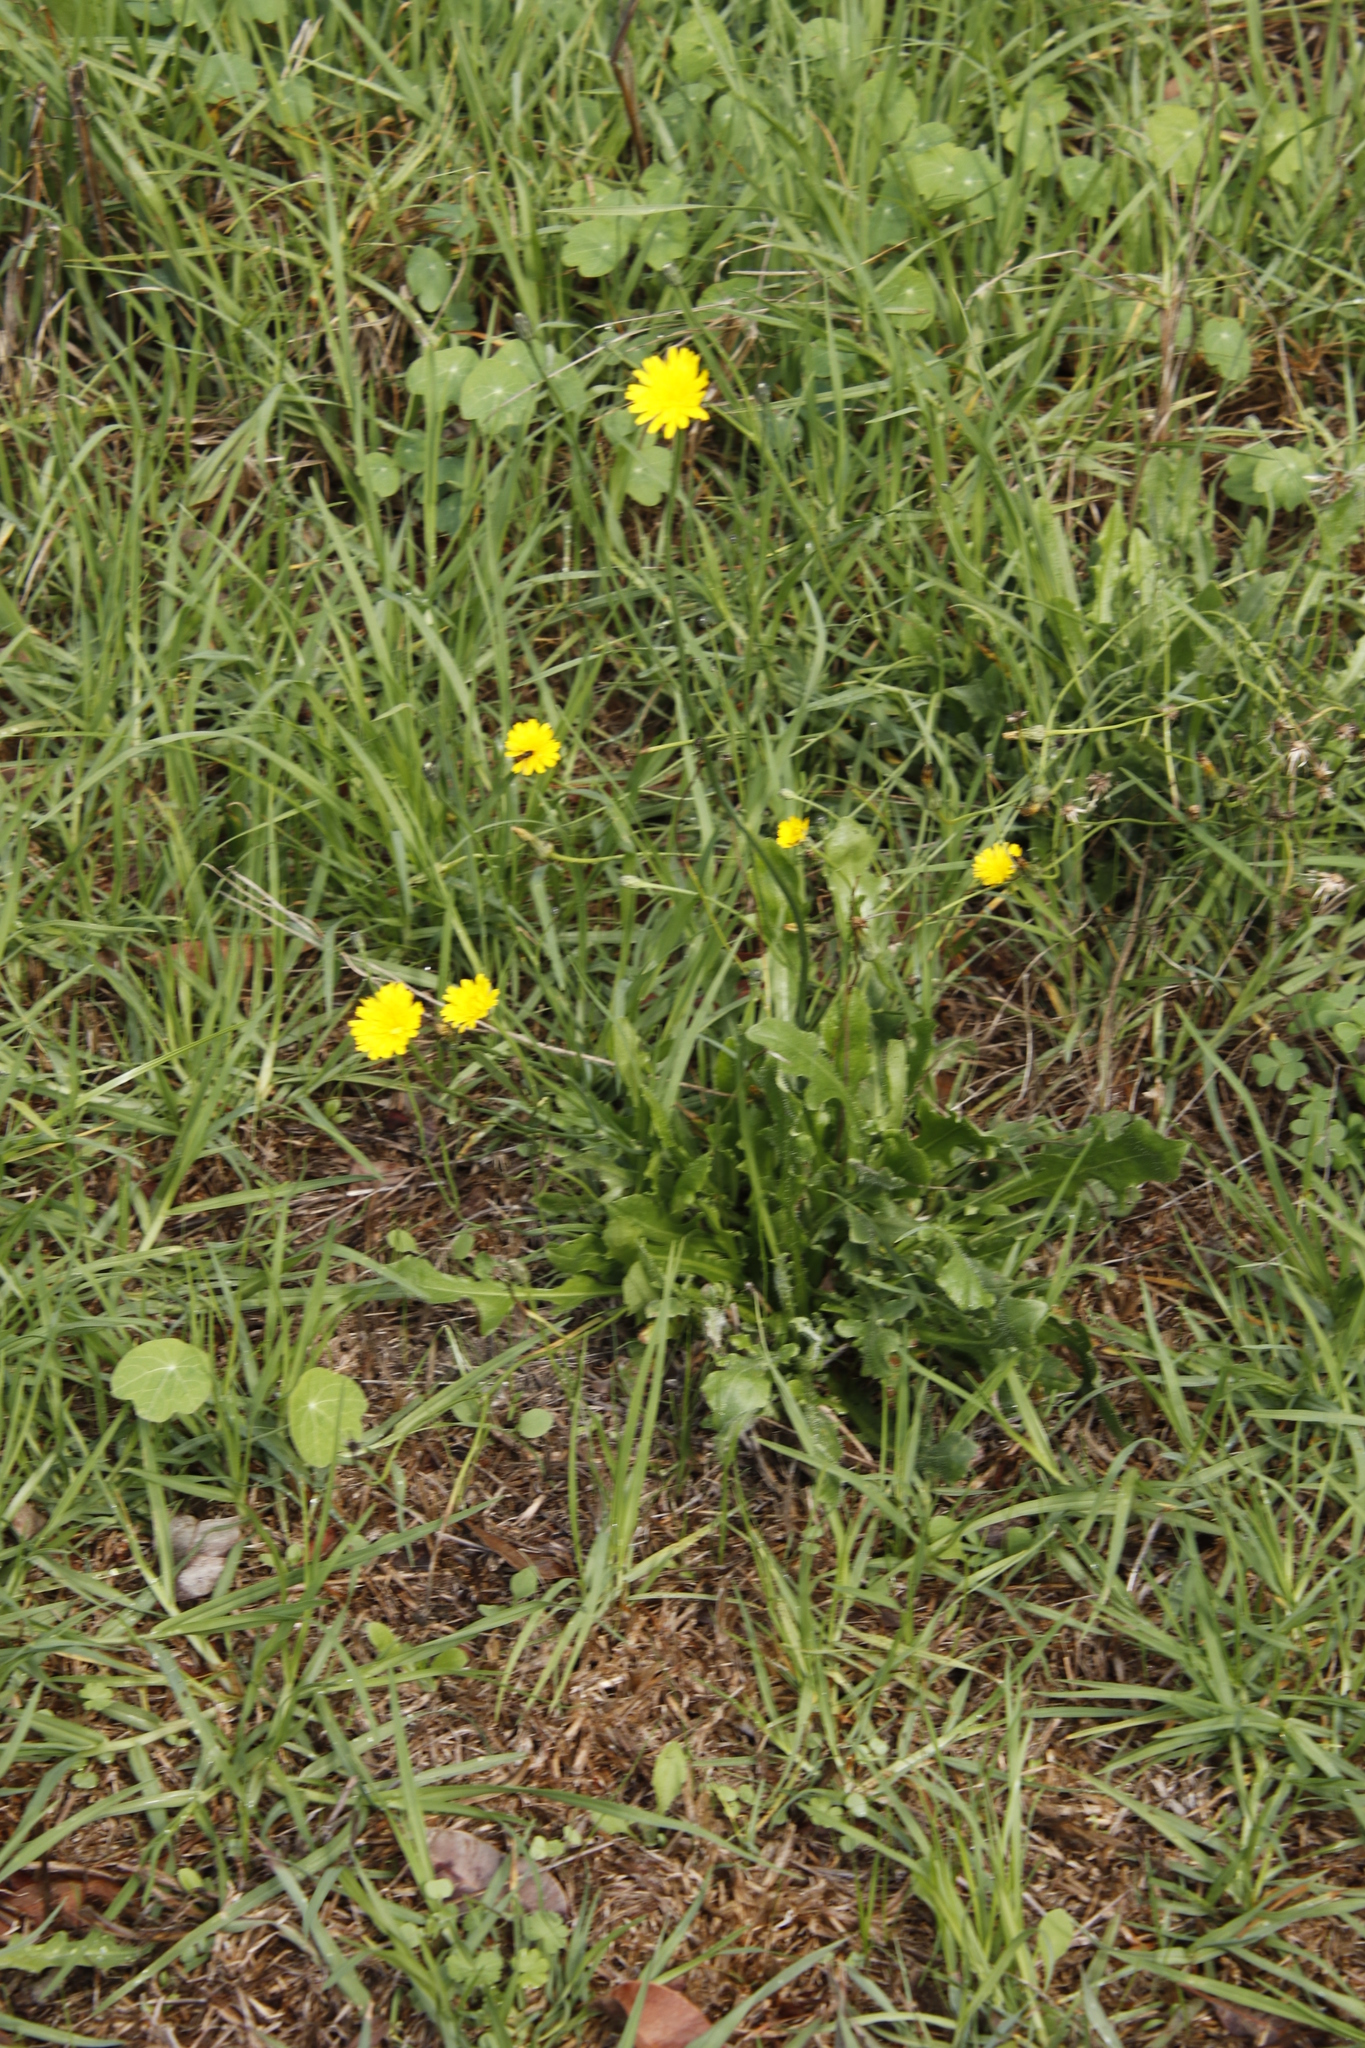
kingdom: Plantae
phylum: Tracheophyta
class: Magnoliopsida
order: Asterales
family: Asteraceae
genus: Hypochaeris
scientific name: Hypochaeris radicata
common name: Flatweed
